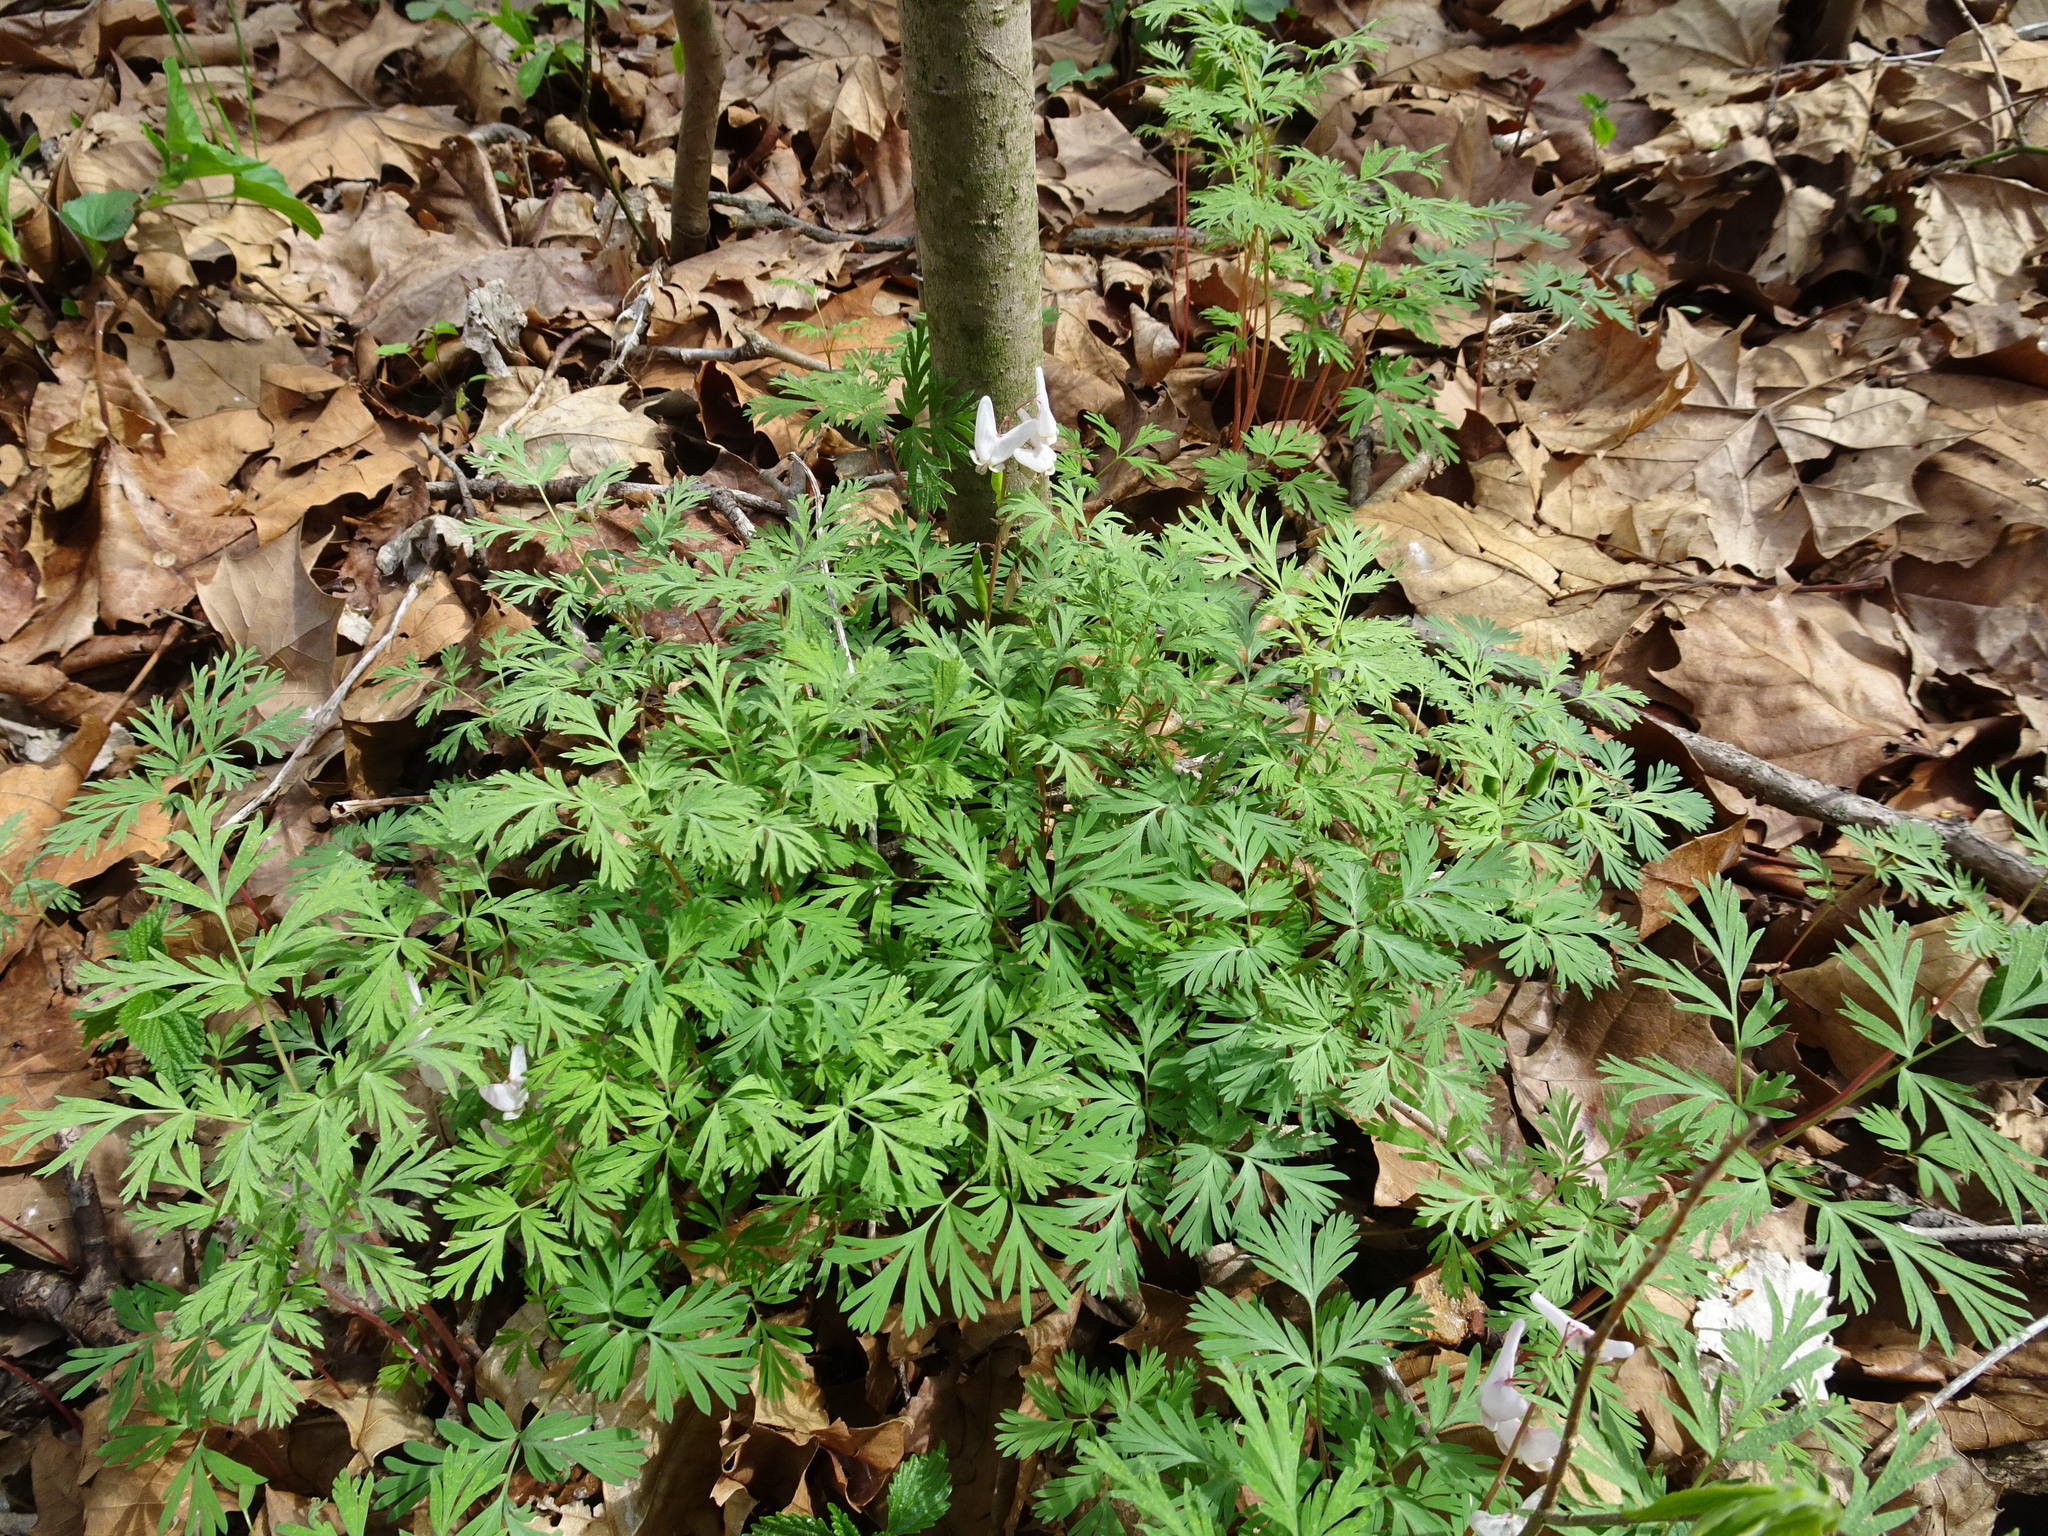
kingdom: Plantae
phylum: Tracheophyta
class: Magnoliopsida
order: Ranunculales
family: Papaveraceae
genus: Dicentra
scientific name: Dicentra cucullaria
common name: Dutchman's breeches
